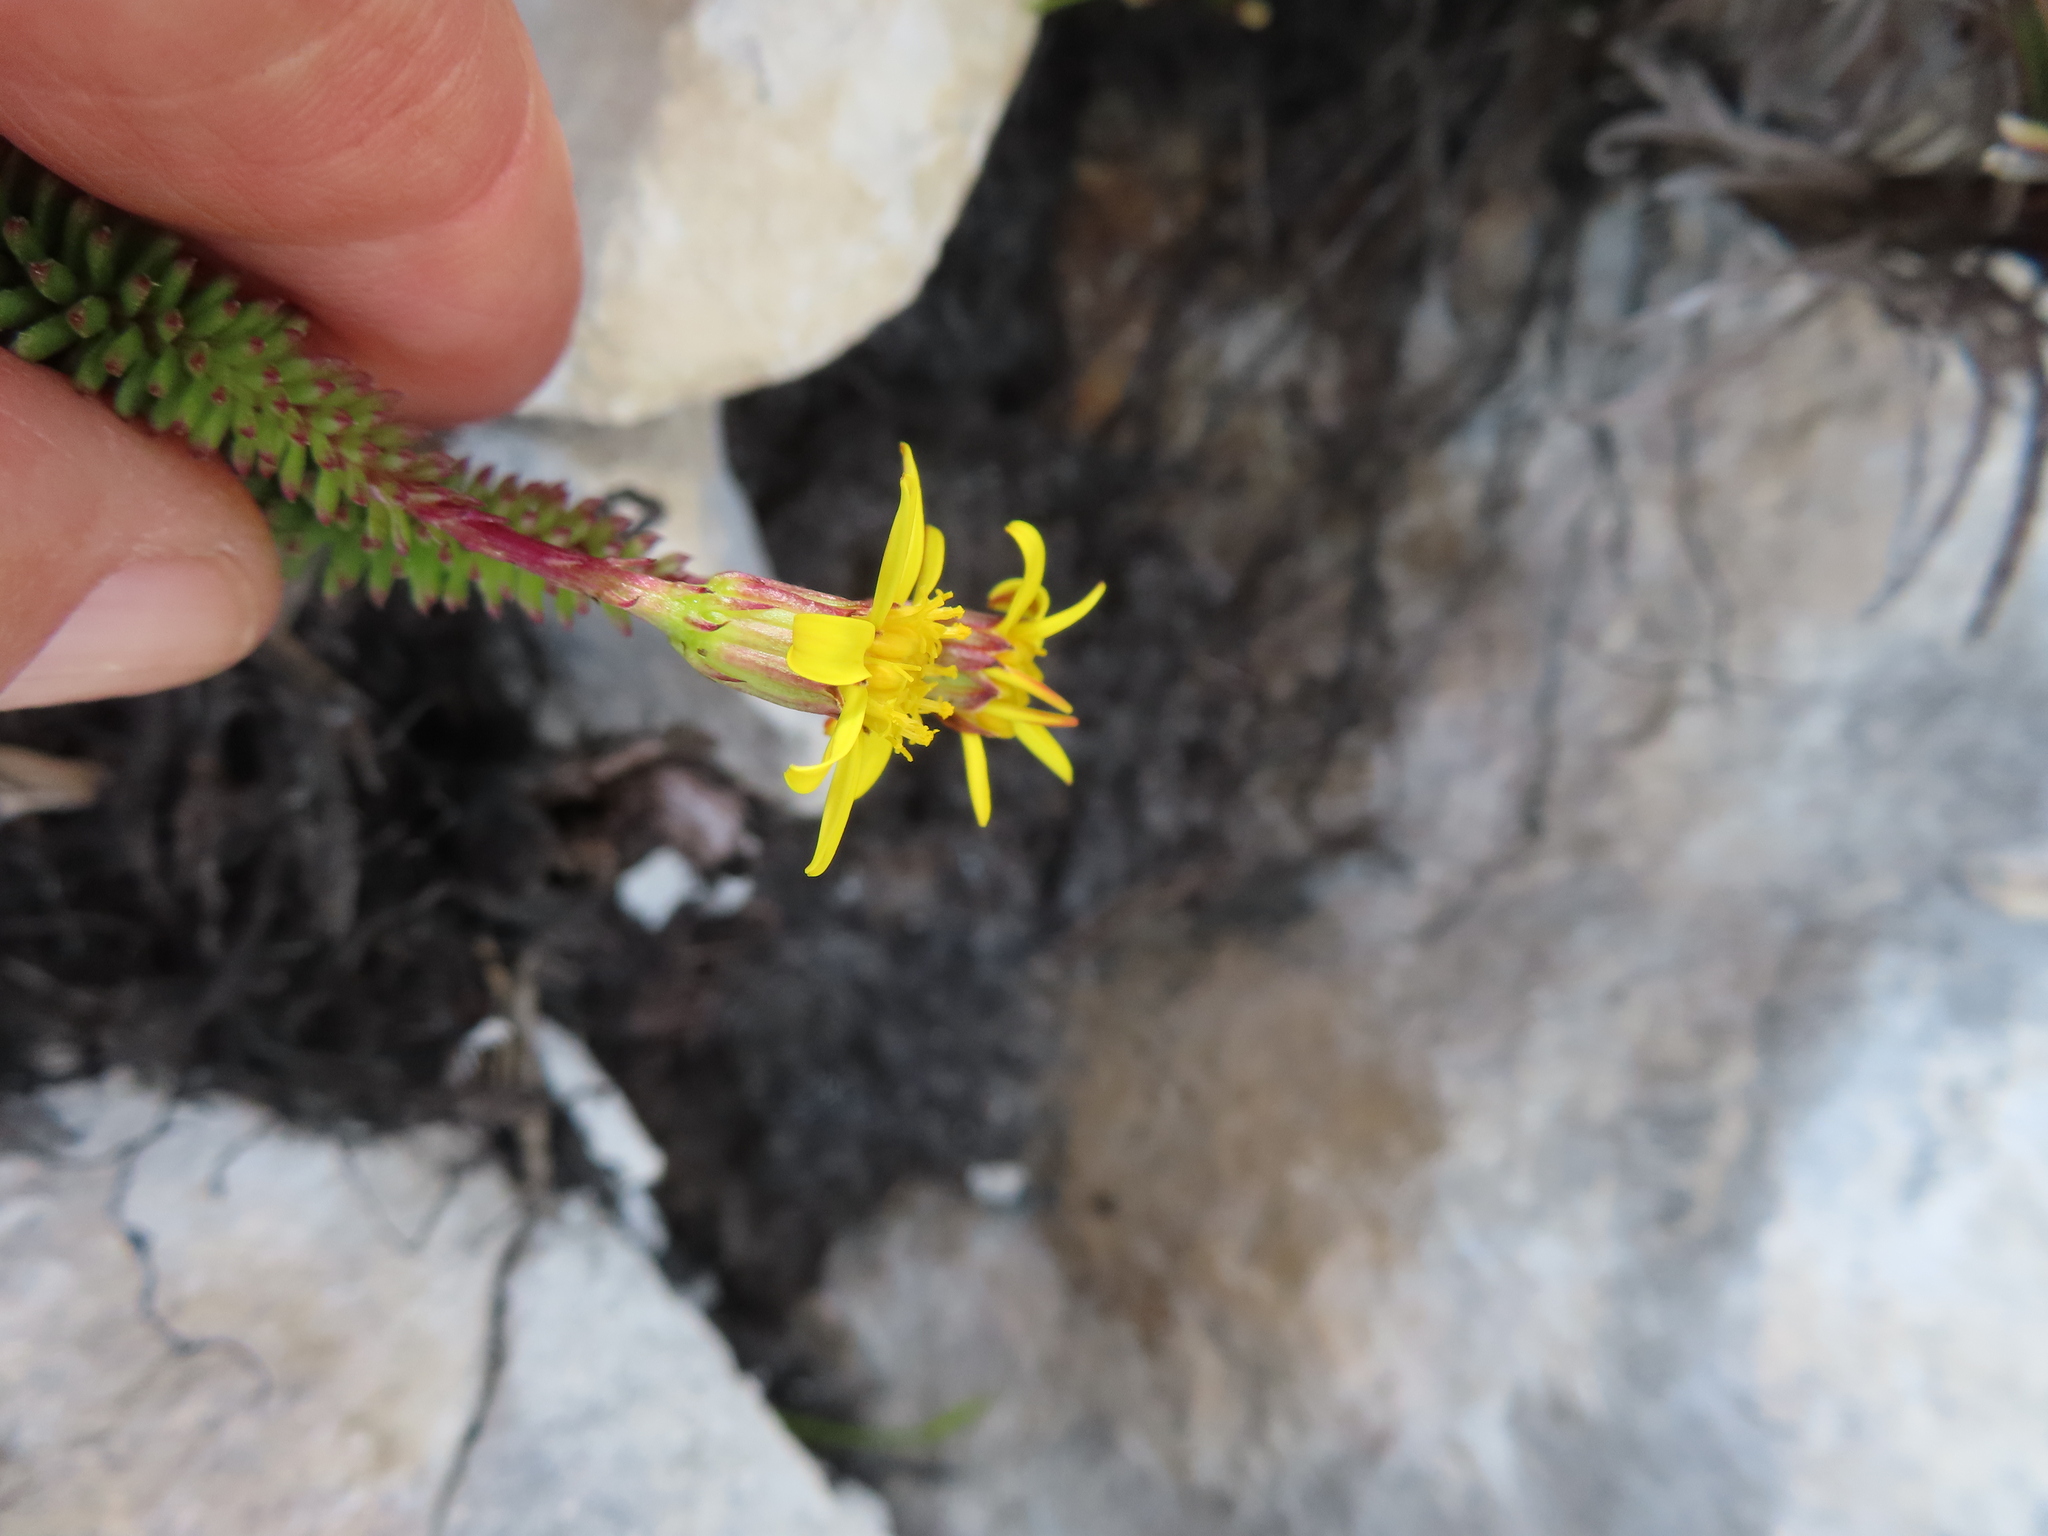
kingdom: Plantae
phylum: Tracheophyta
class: Magnoliopsida
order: Asterales
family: Asteraceae
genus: Senecio
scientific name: Senecio lycopodioides
